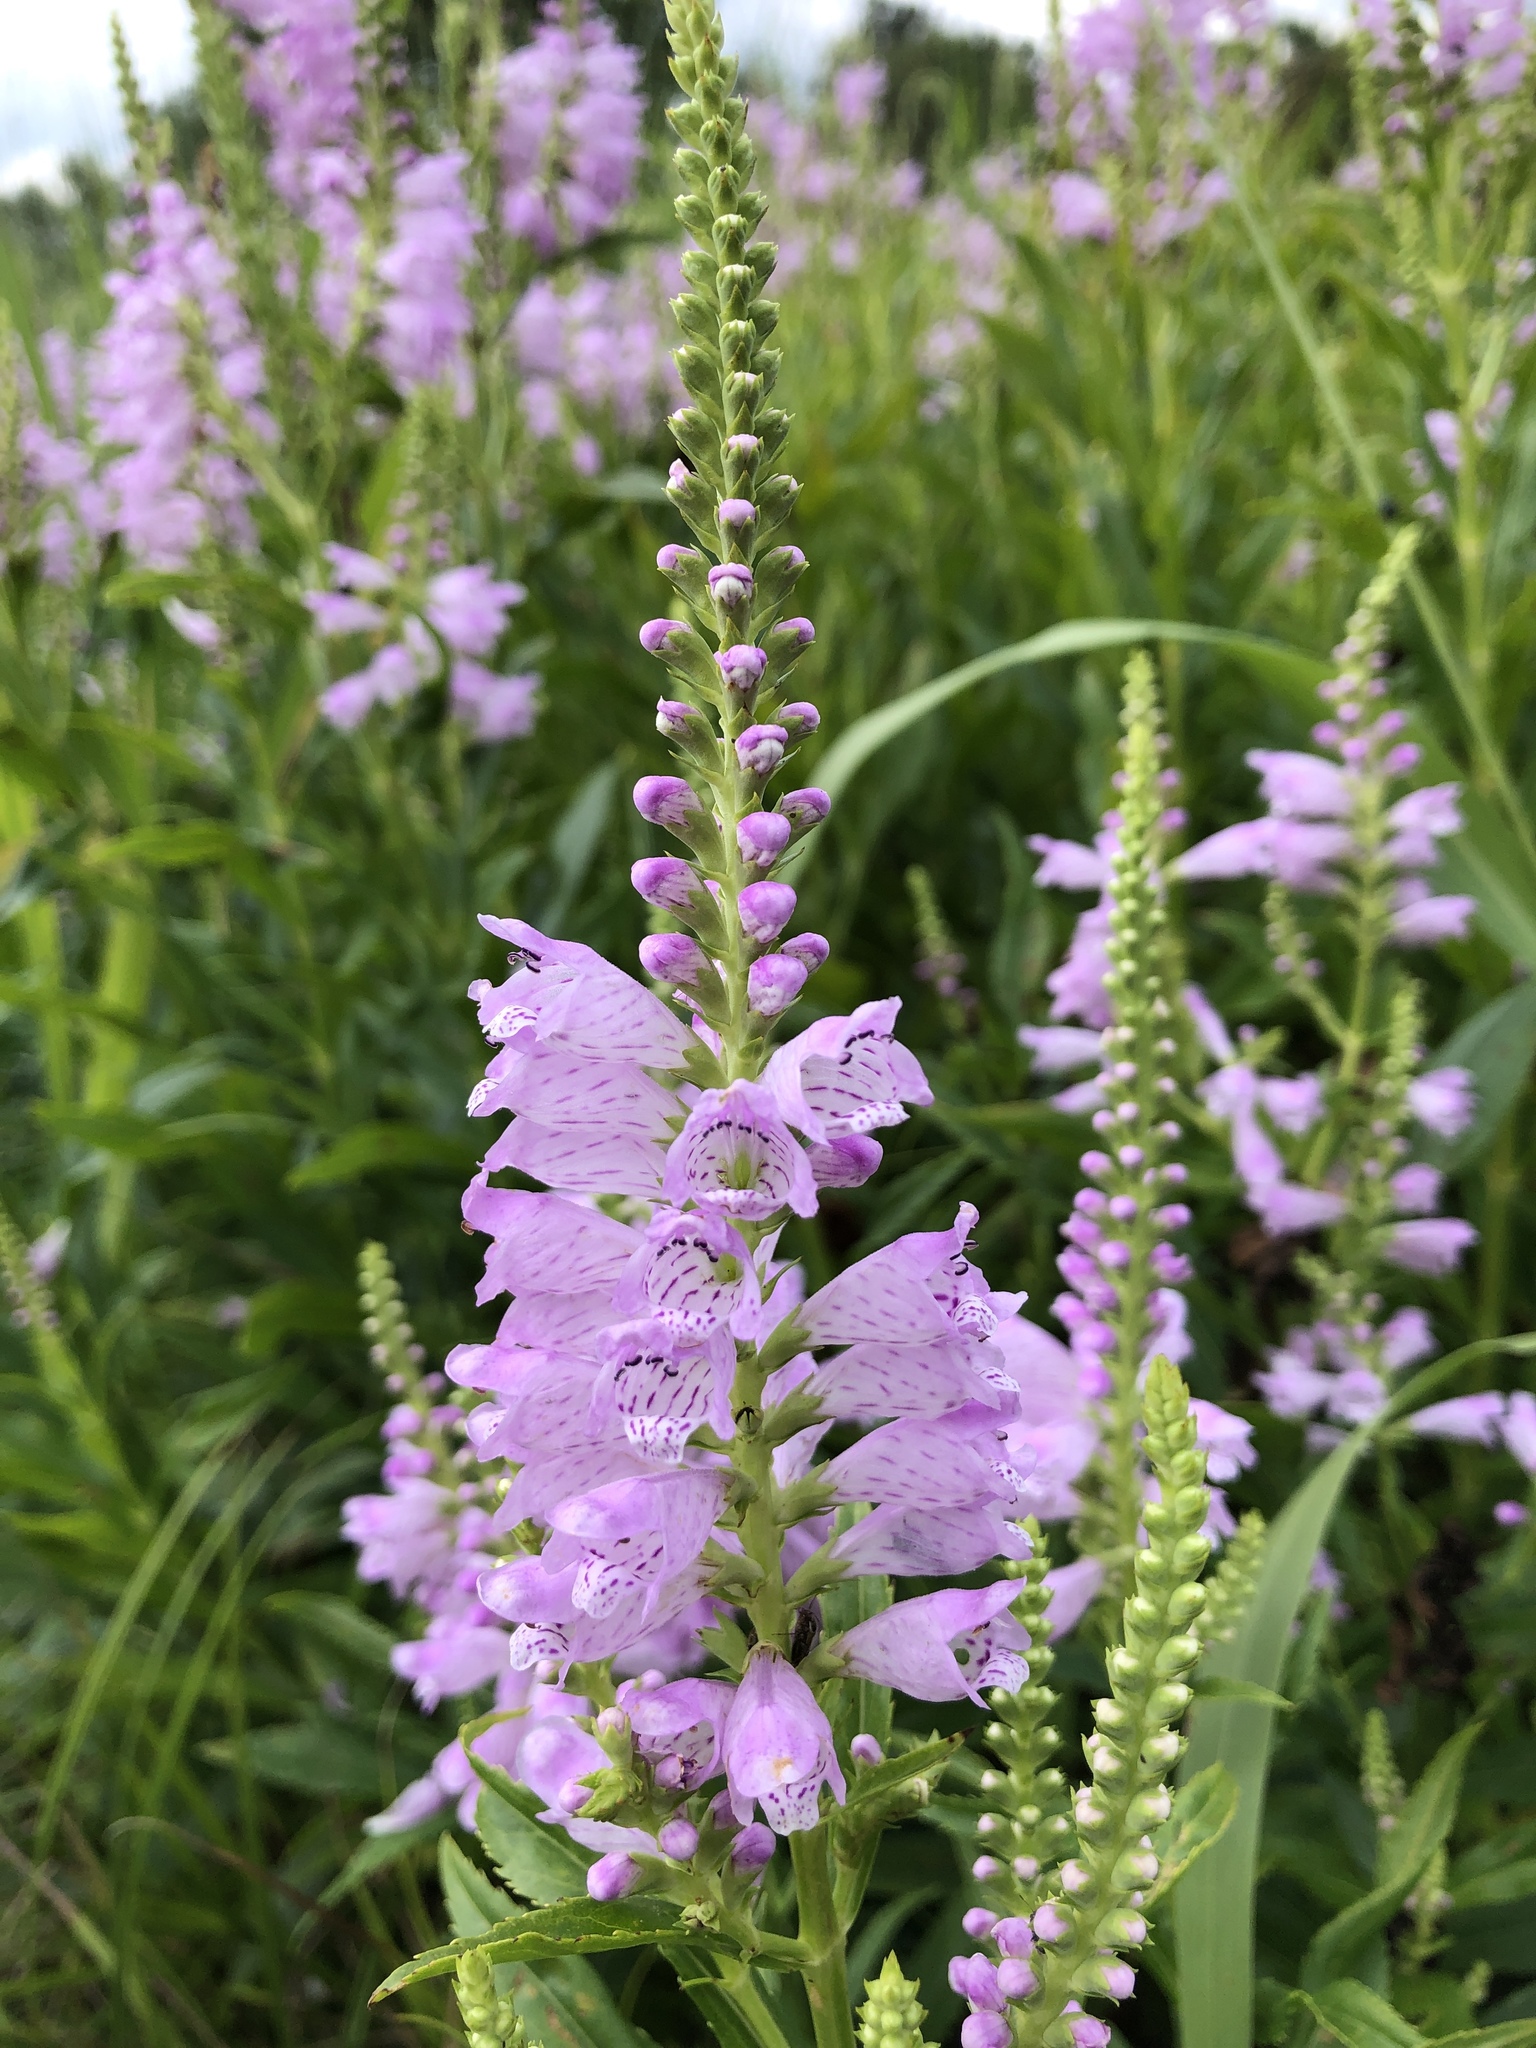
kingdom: Plantae
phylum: Tracheophyta
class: Magnoliopsida
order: Lamiales
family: Lamiaceae
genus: Physostegia
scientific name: Physostegia virginiana
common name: Obedient-plant
